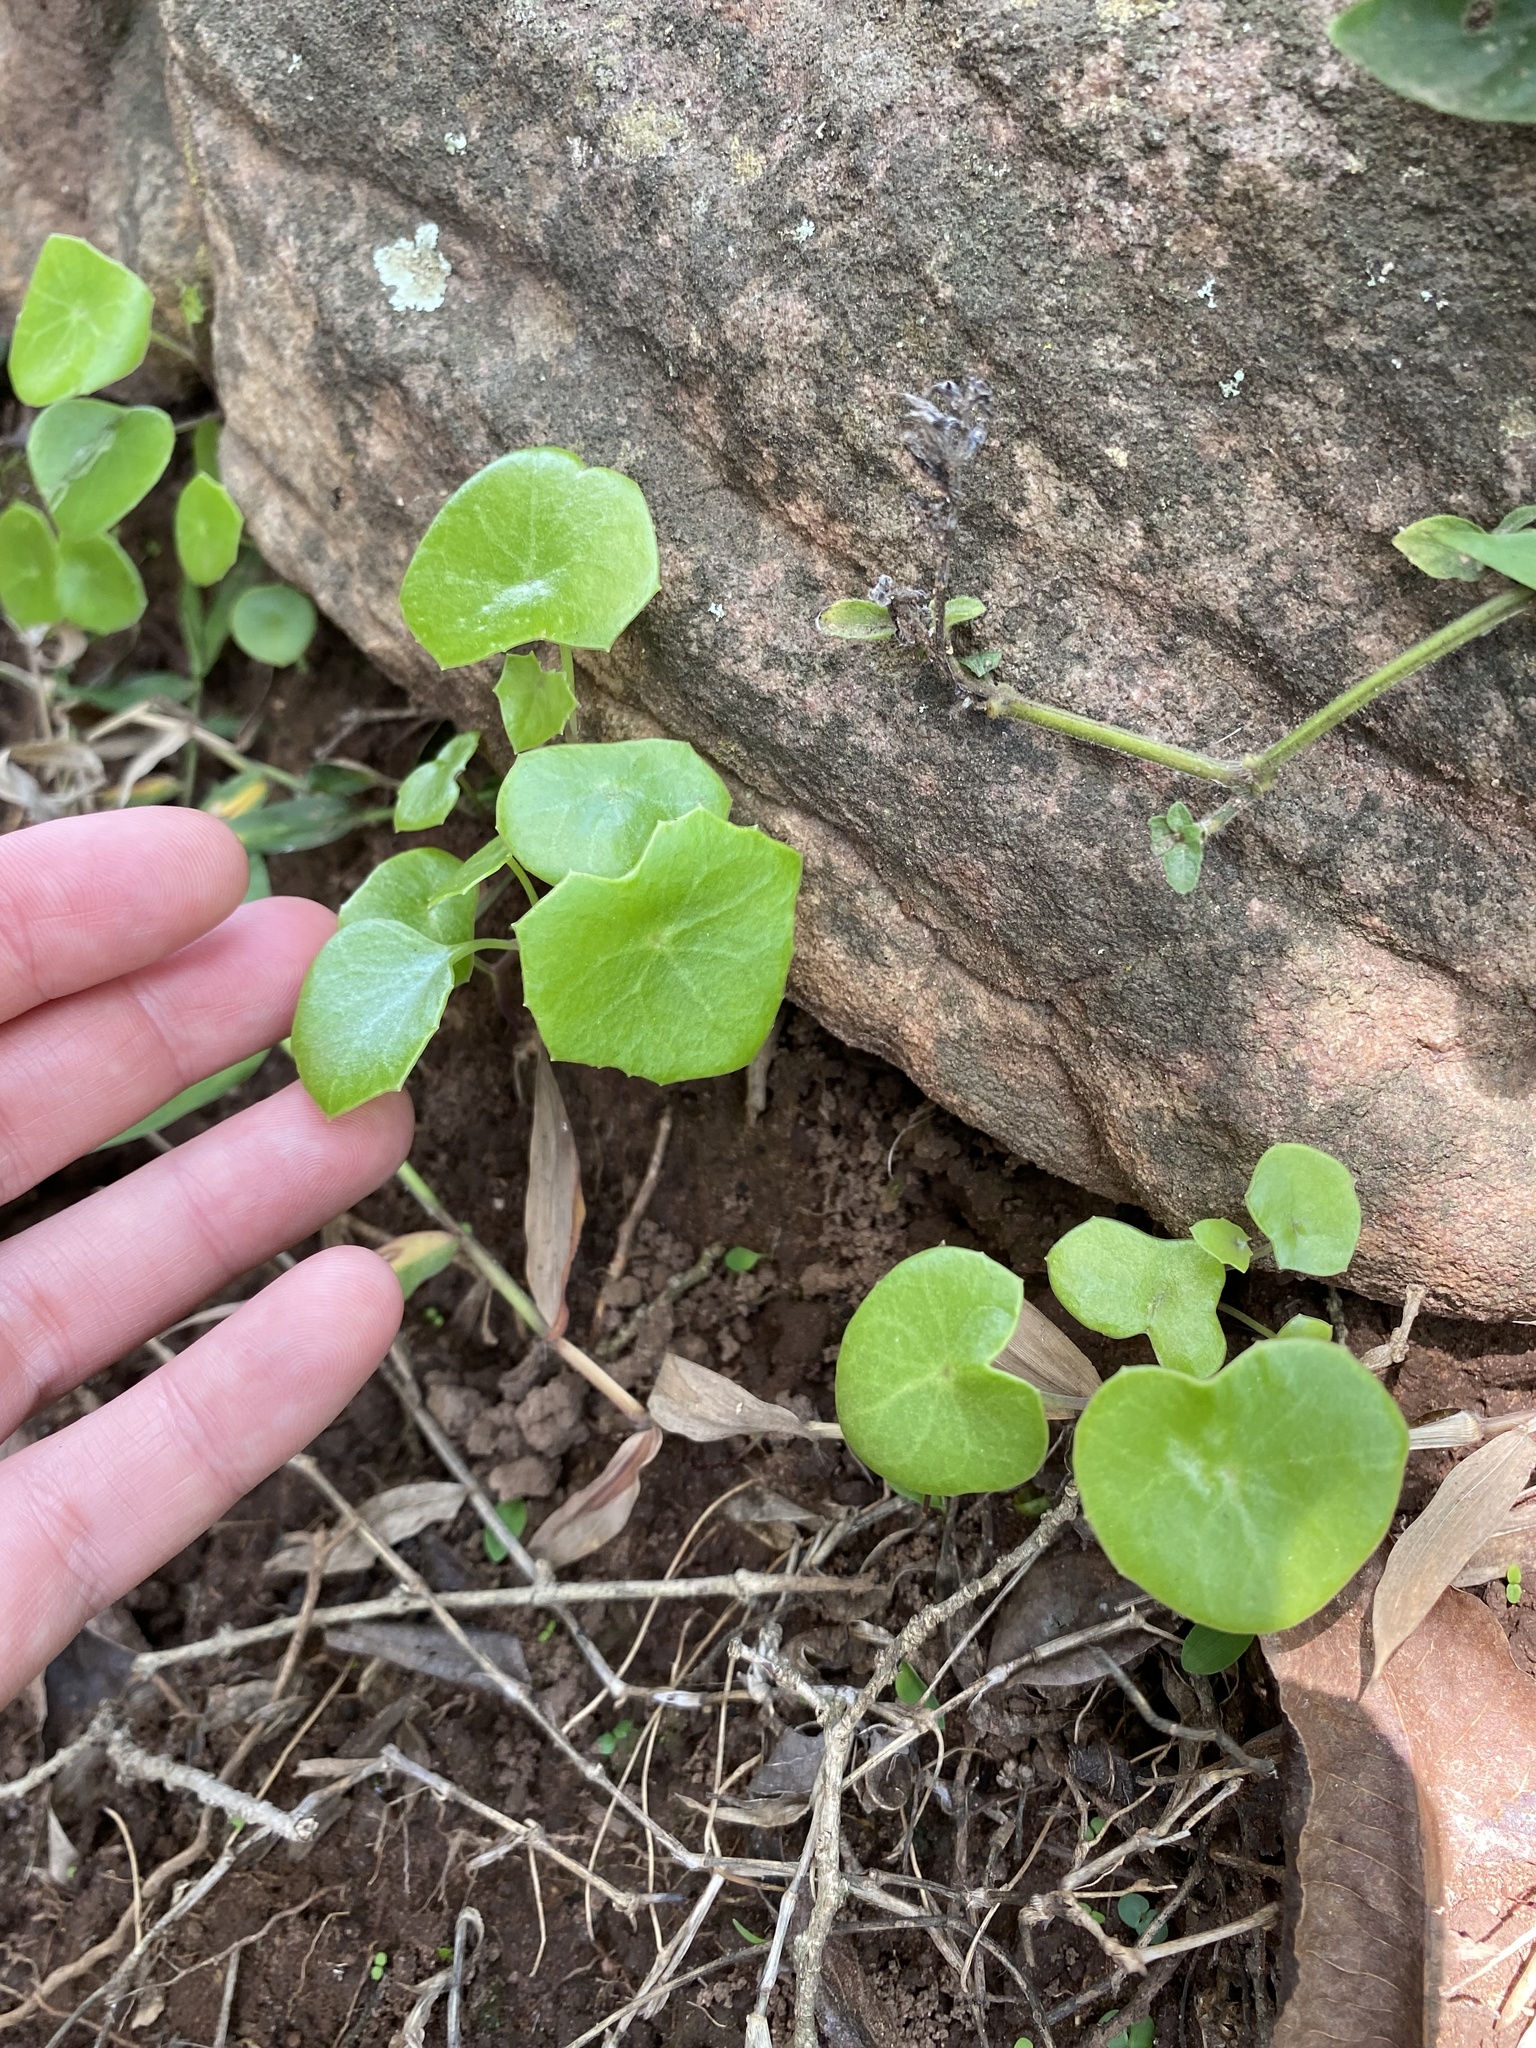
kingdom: Plantae
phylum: Tracheophyta
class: Magnoliopsida
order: Asterales
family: Asteraceae
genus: Senecio
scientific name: Senecio oxyriifolius
